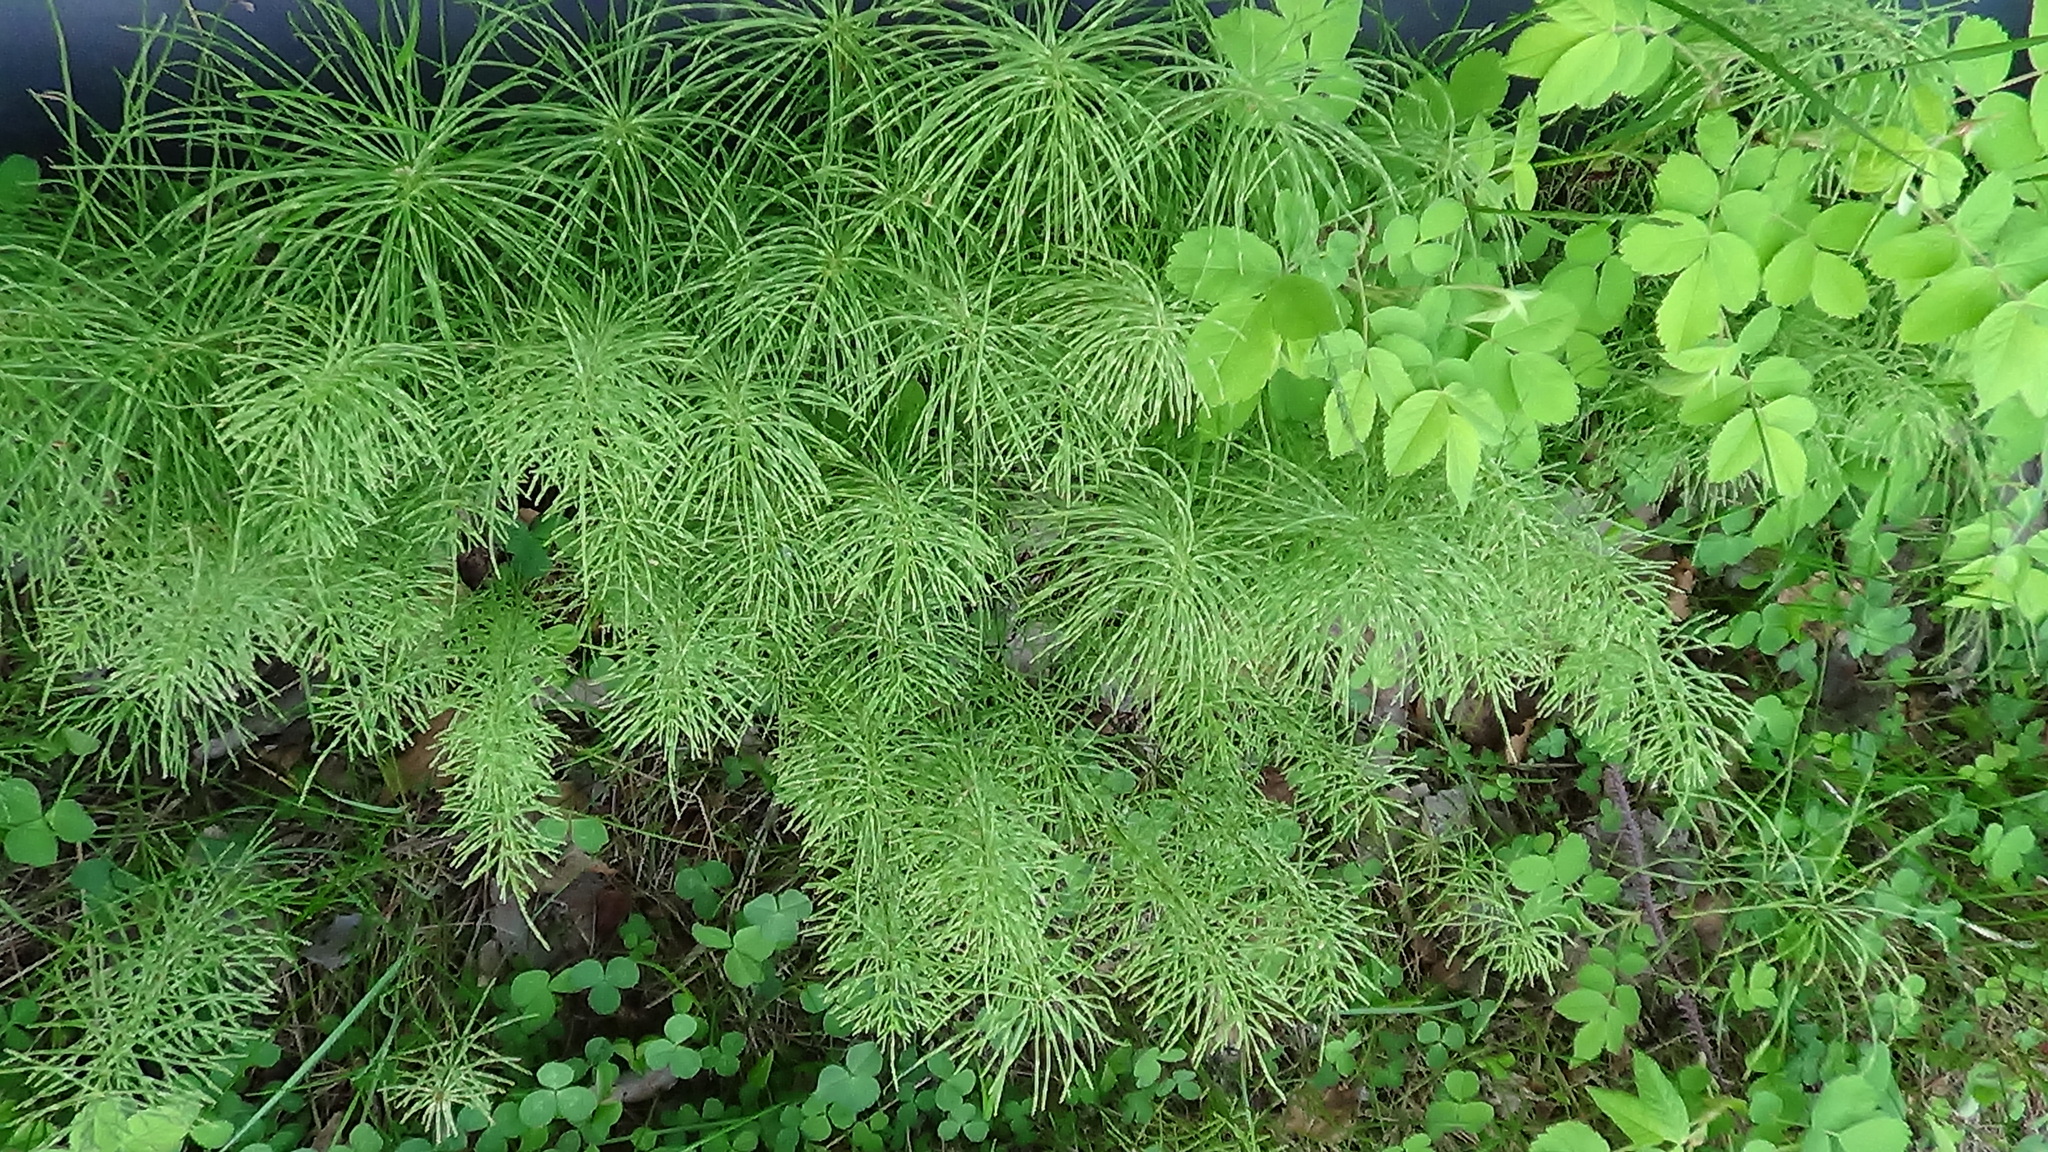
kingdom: Plantae
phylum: Tracheophyta
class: Polypodiopsida
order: Equisetales
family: Equisetaceae
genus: Equisetum
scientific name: Equisetum pratense
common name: Meadow horsetail
